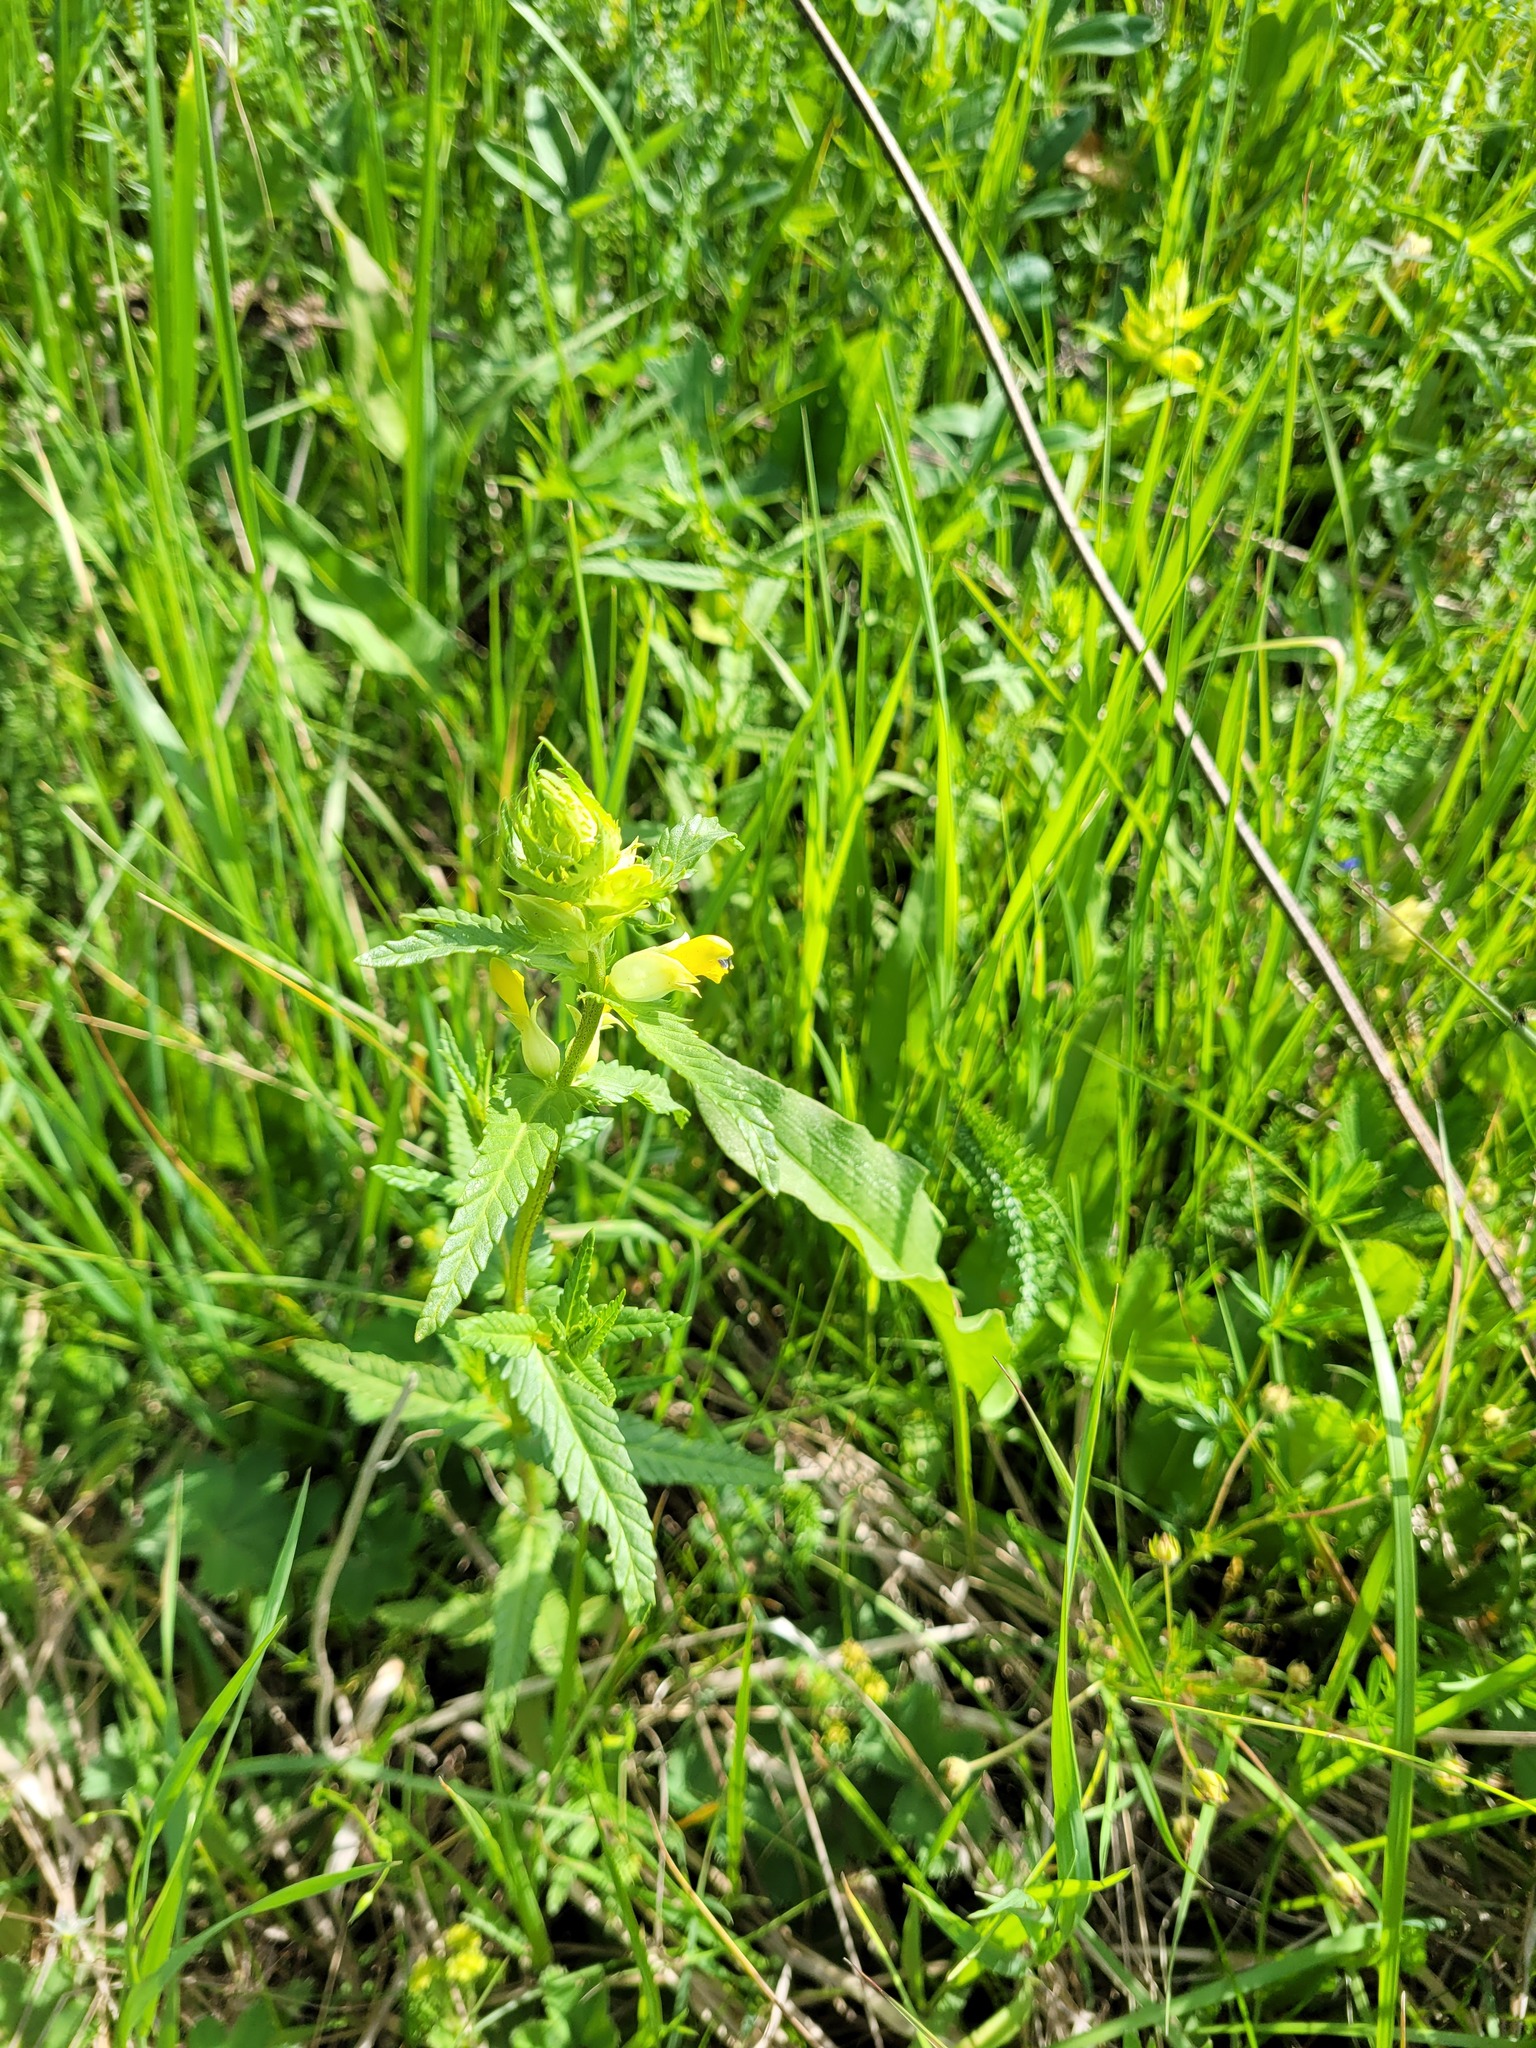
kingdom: Plantae
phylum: Tracheophyta
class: Magnoliopsida
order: Lamiales
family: Orobanchaceae
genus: Rhinanthus
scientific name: Rhinanthus serotinus
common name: Late-flowering yellow rattle
